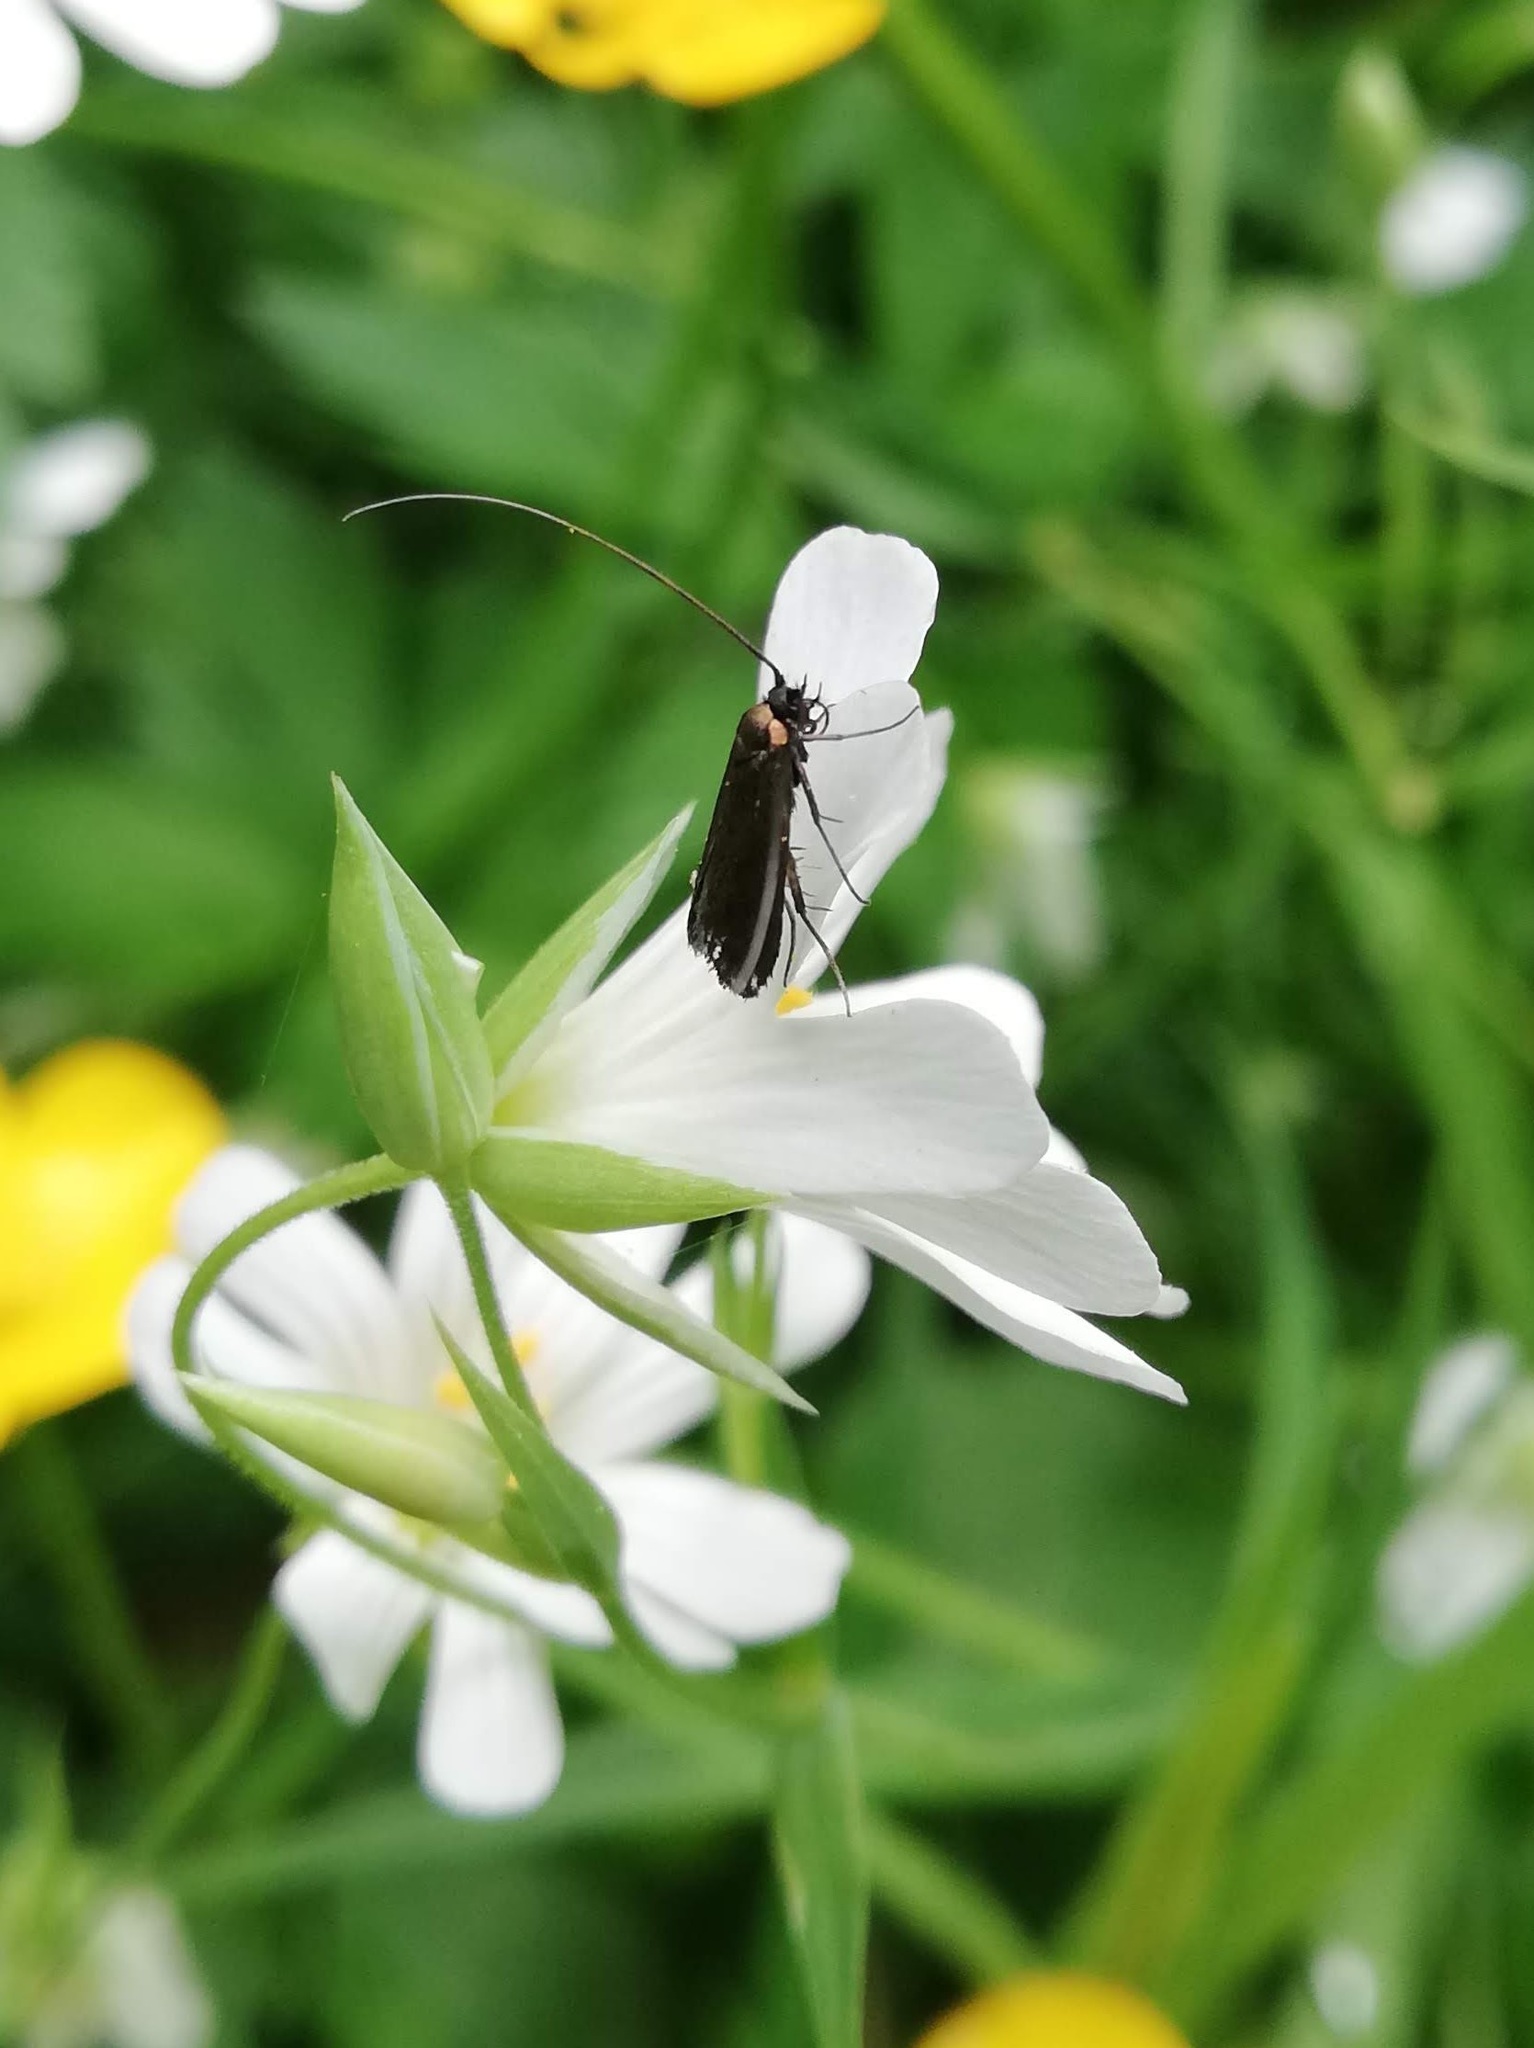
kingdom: Plantae
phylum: Tracheophyta
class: Magnoliopsida
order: Caryophyllales
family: Caryophyllaceae
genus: Rabelera
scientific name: Rabelera holostea
